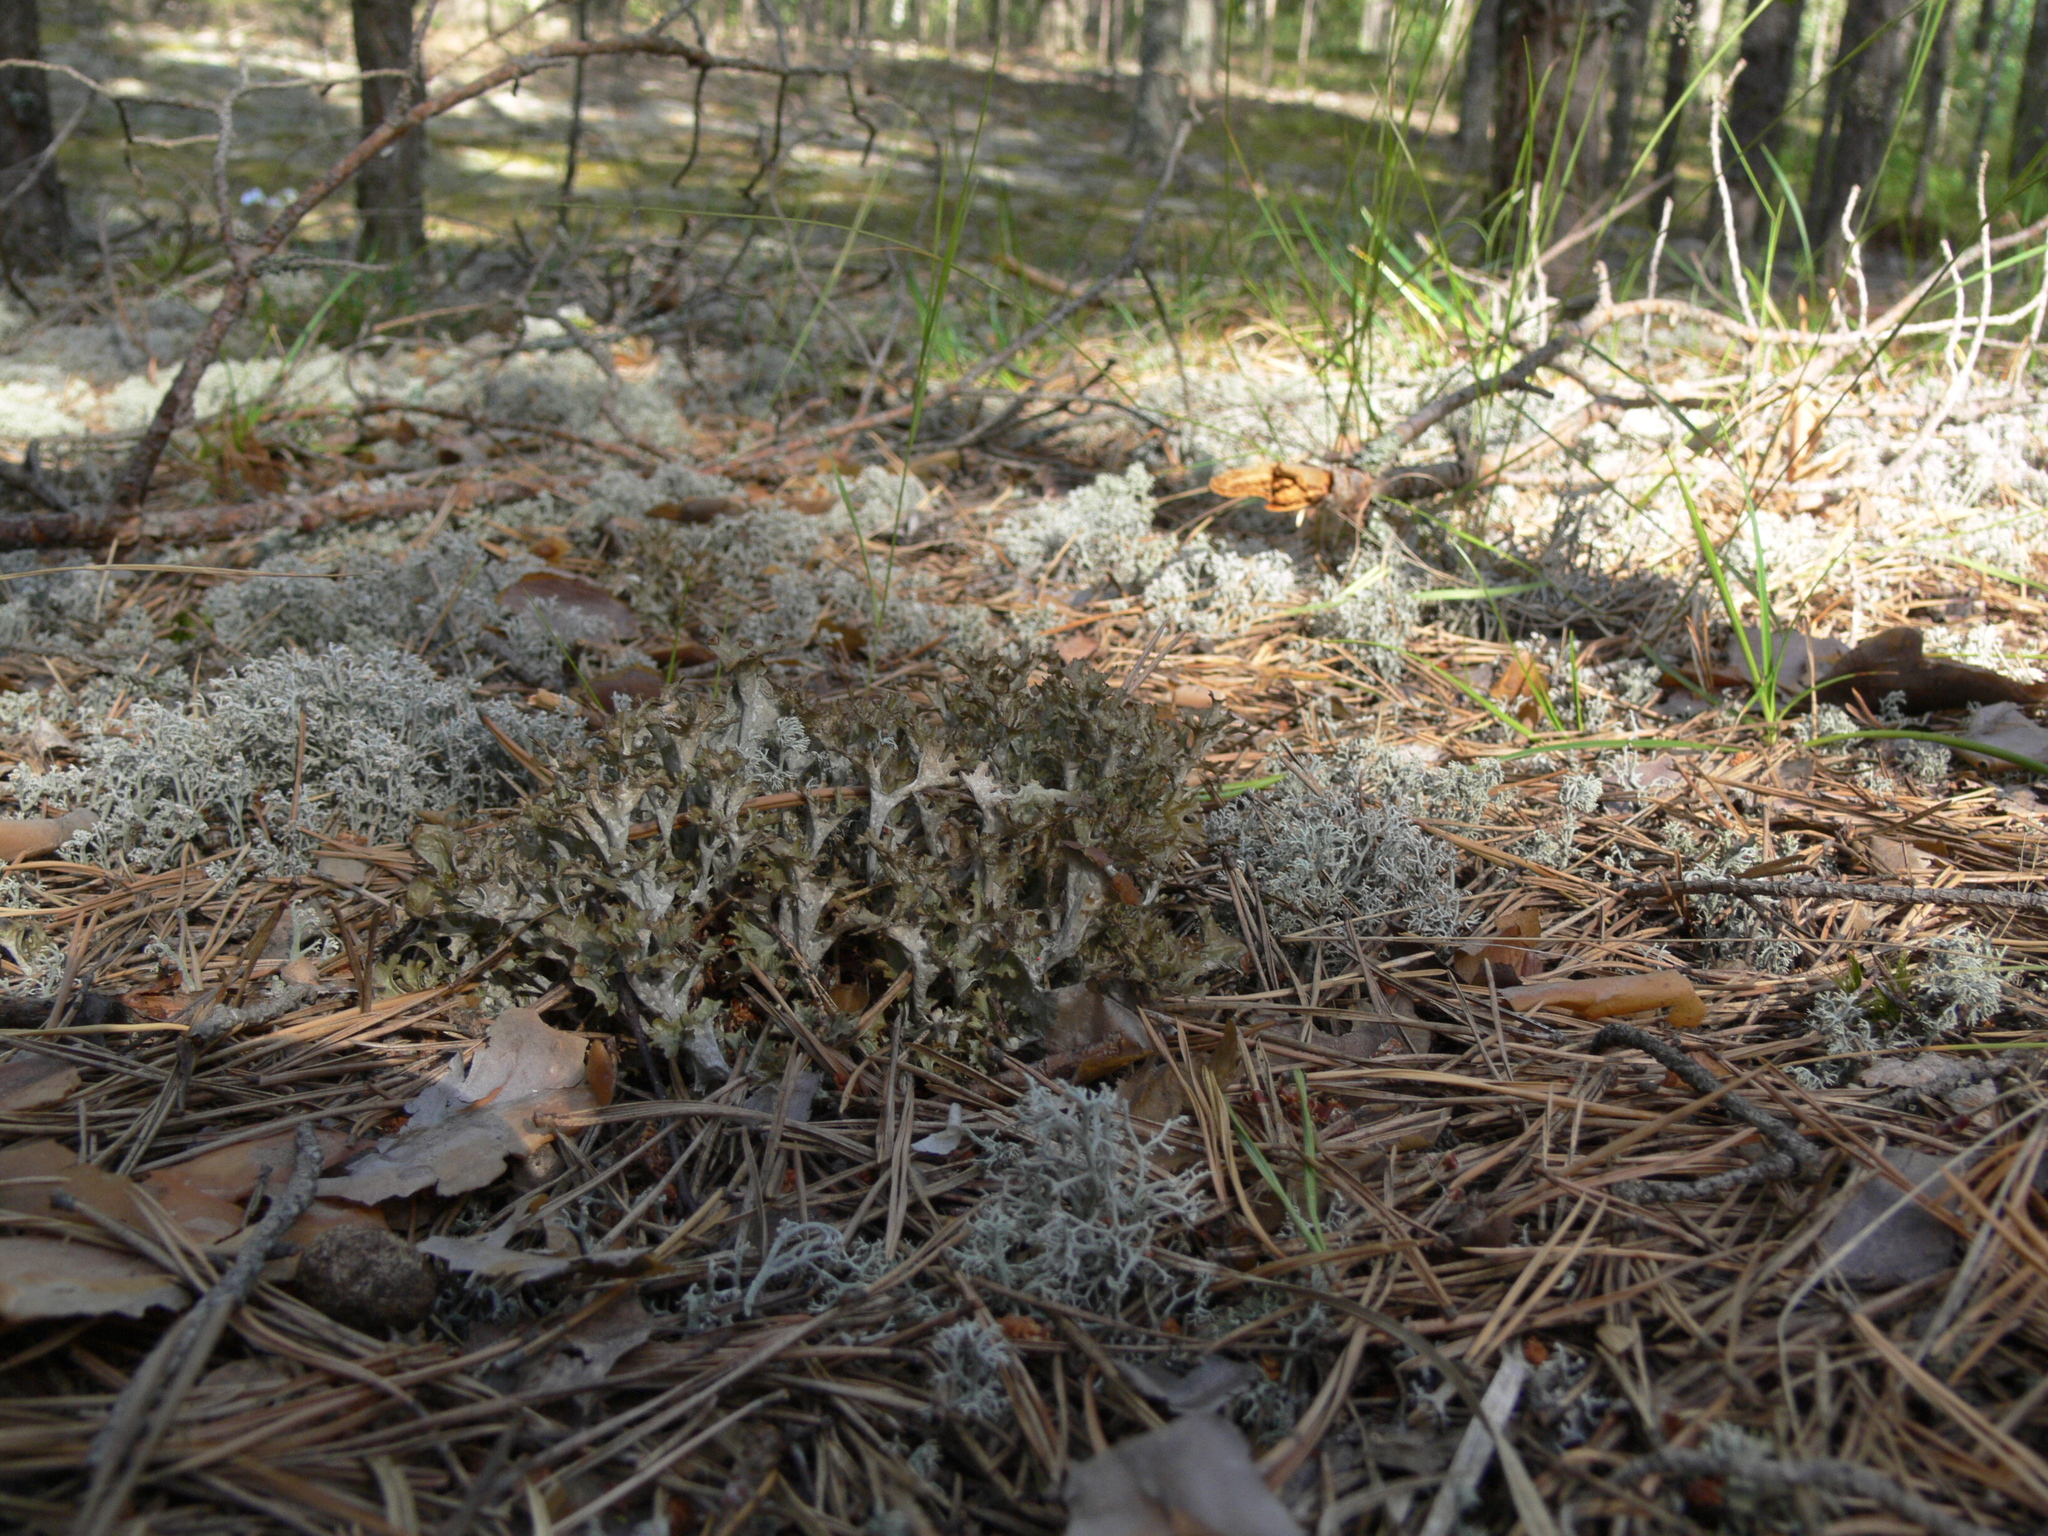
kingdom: Fungi
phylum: Ascomycota
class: Lecanoromycetes
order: Lecanorales
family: Cladoniaceae
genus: Cladonia
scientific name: Cladonia rangiferina
